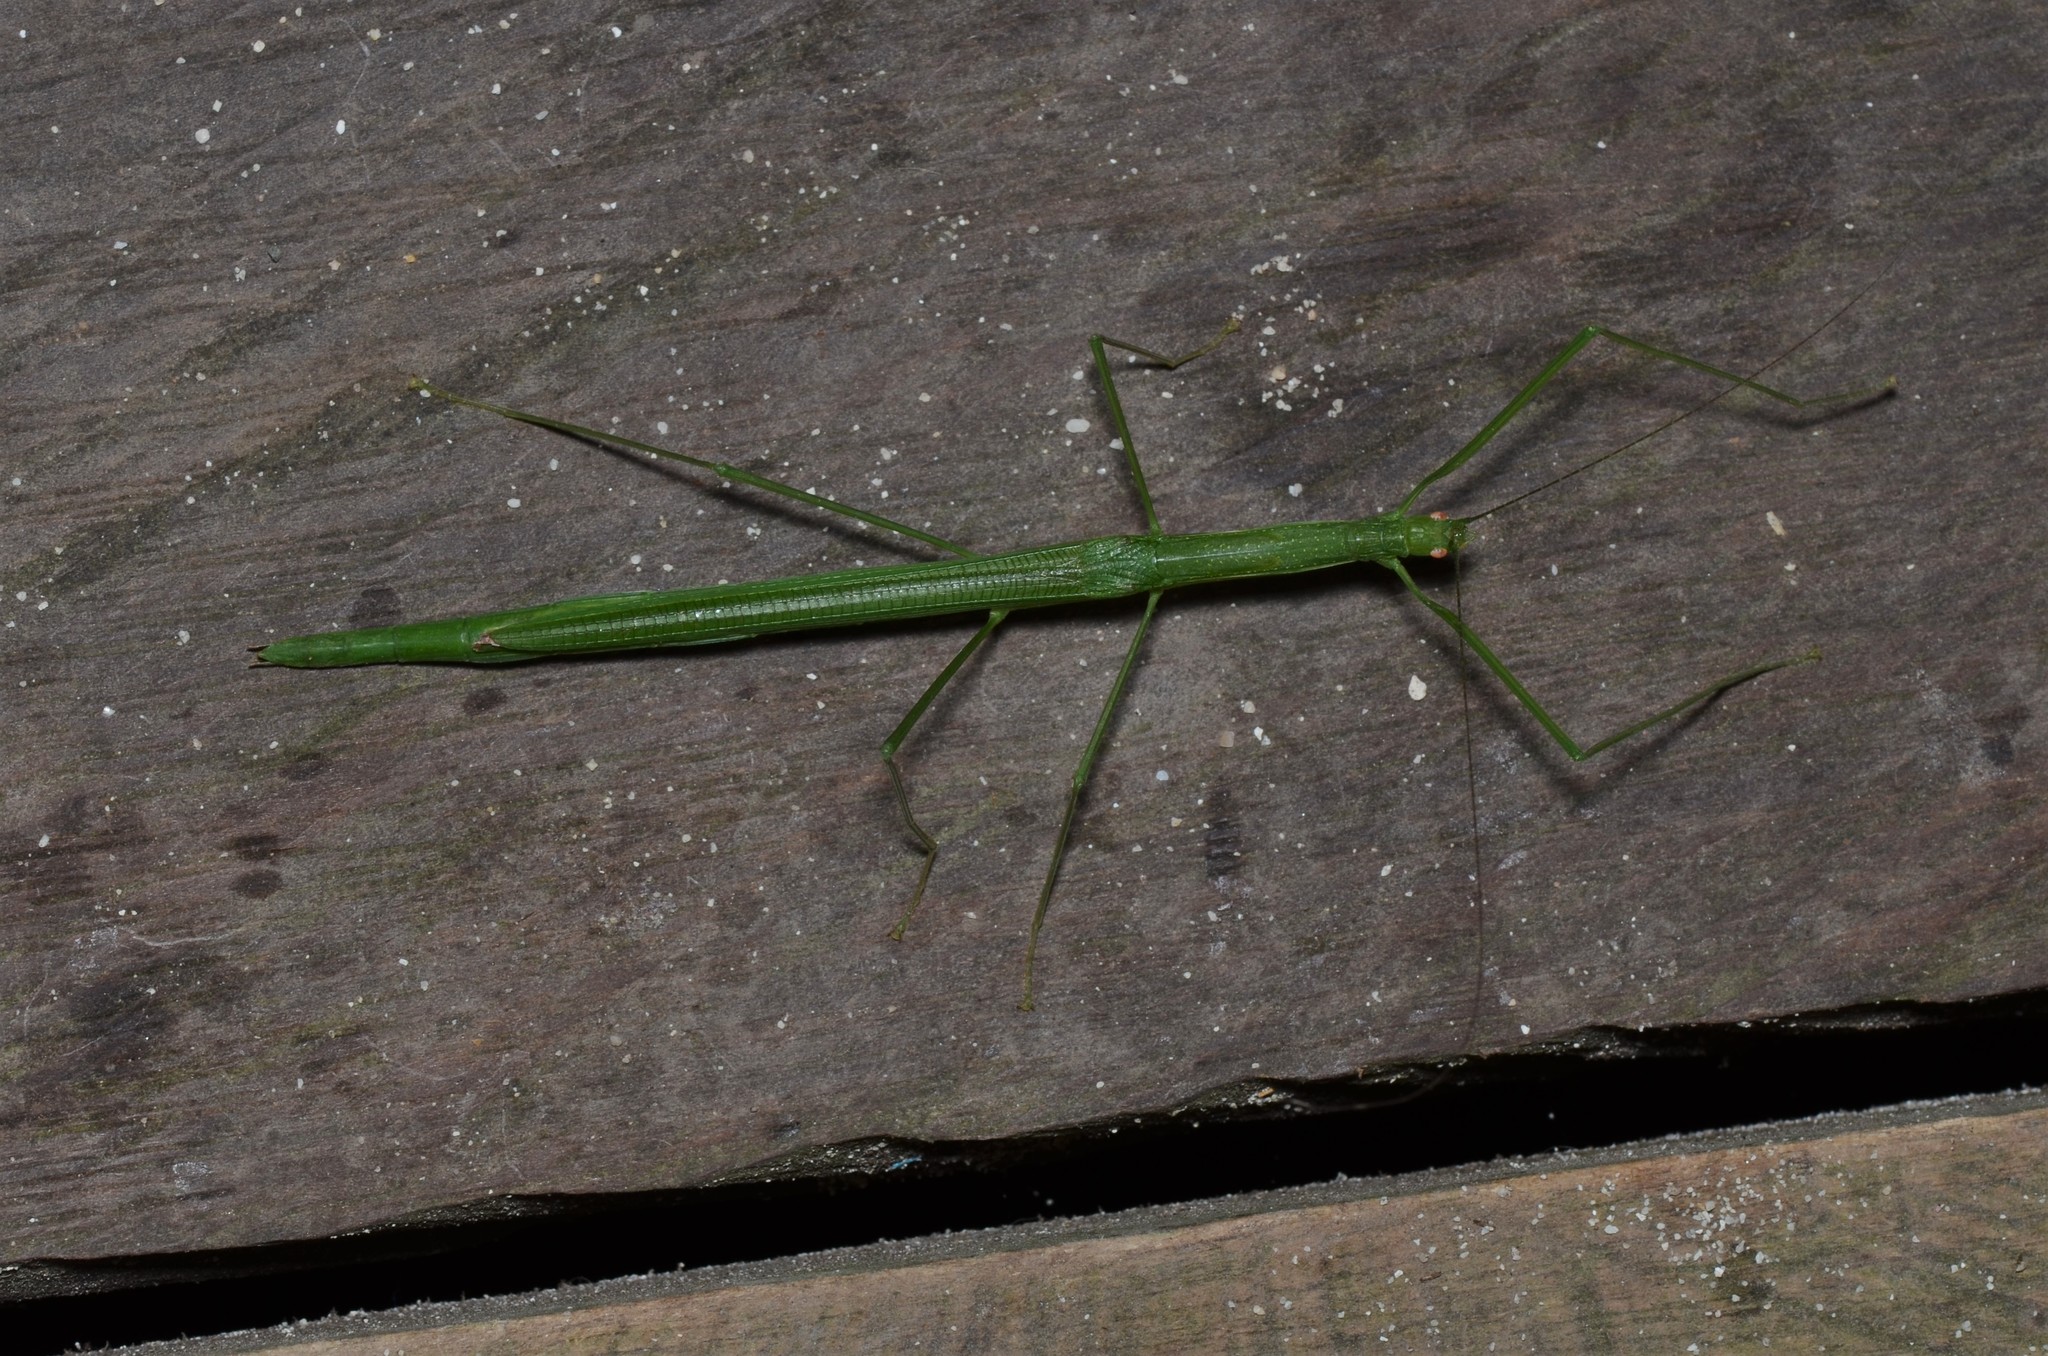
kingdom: Animalia
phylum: Arthropoda
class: Insecta
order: Phasmida
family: Lonchodidae
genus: Singaporoidea
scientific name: Singaporoidea poeciloptera
